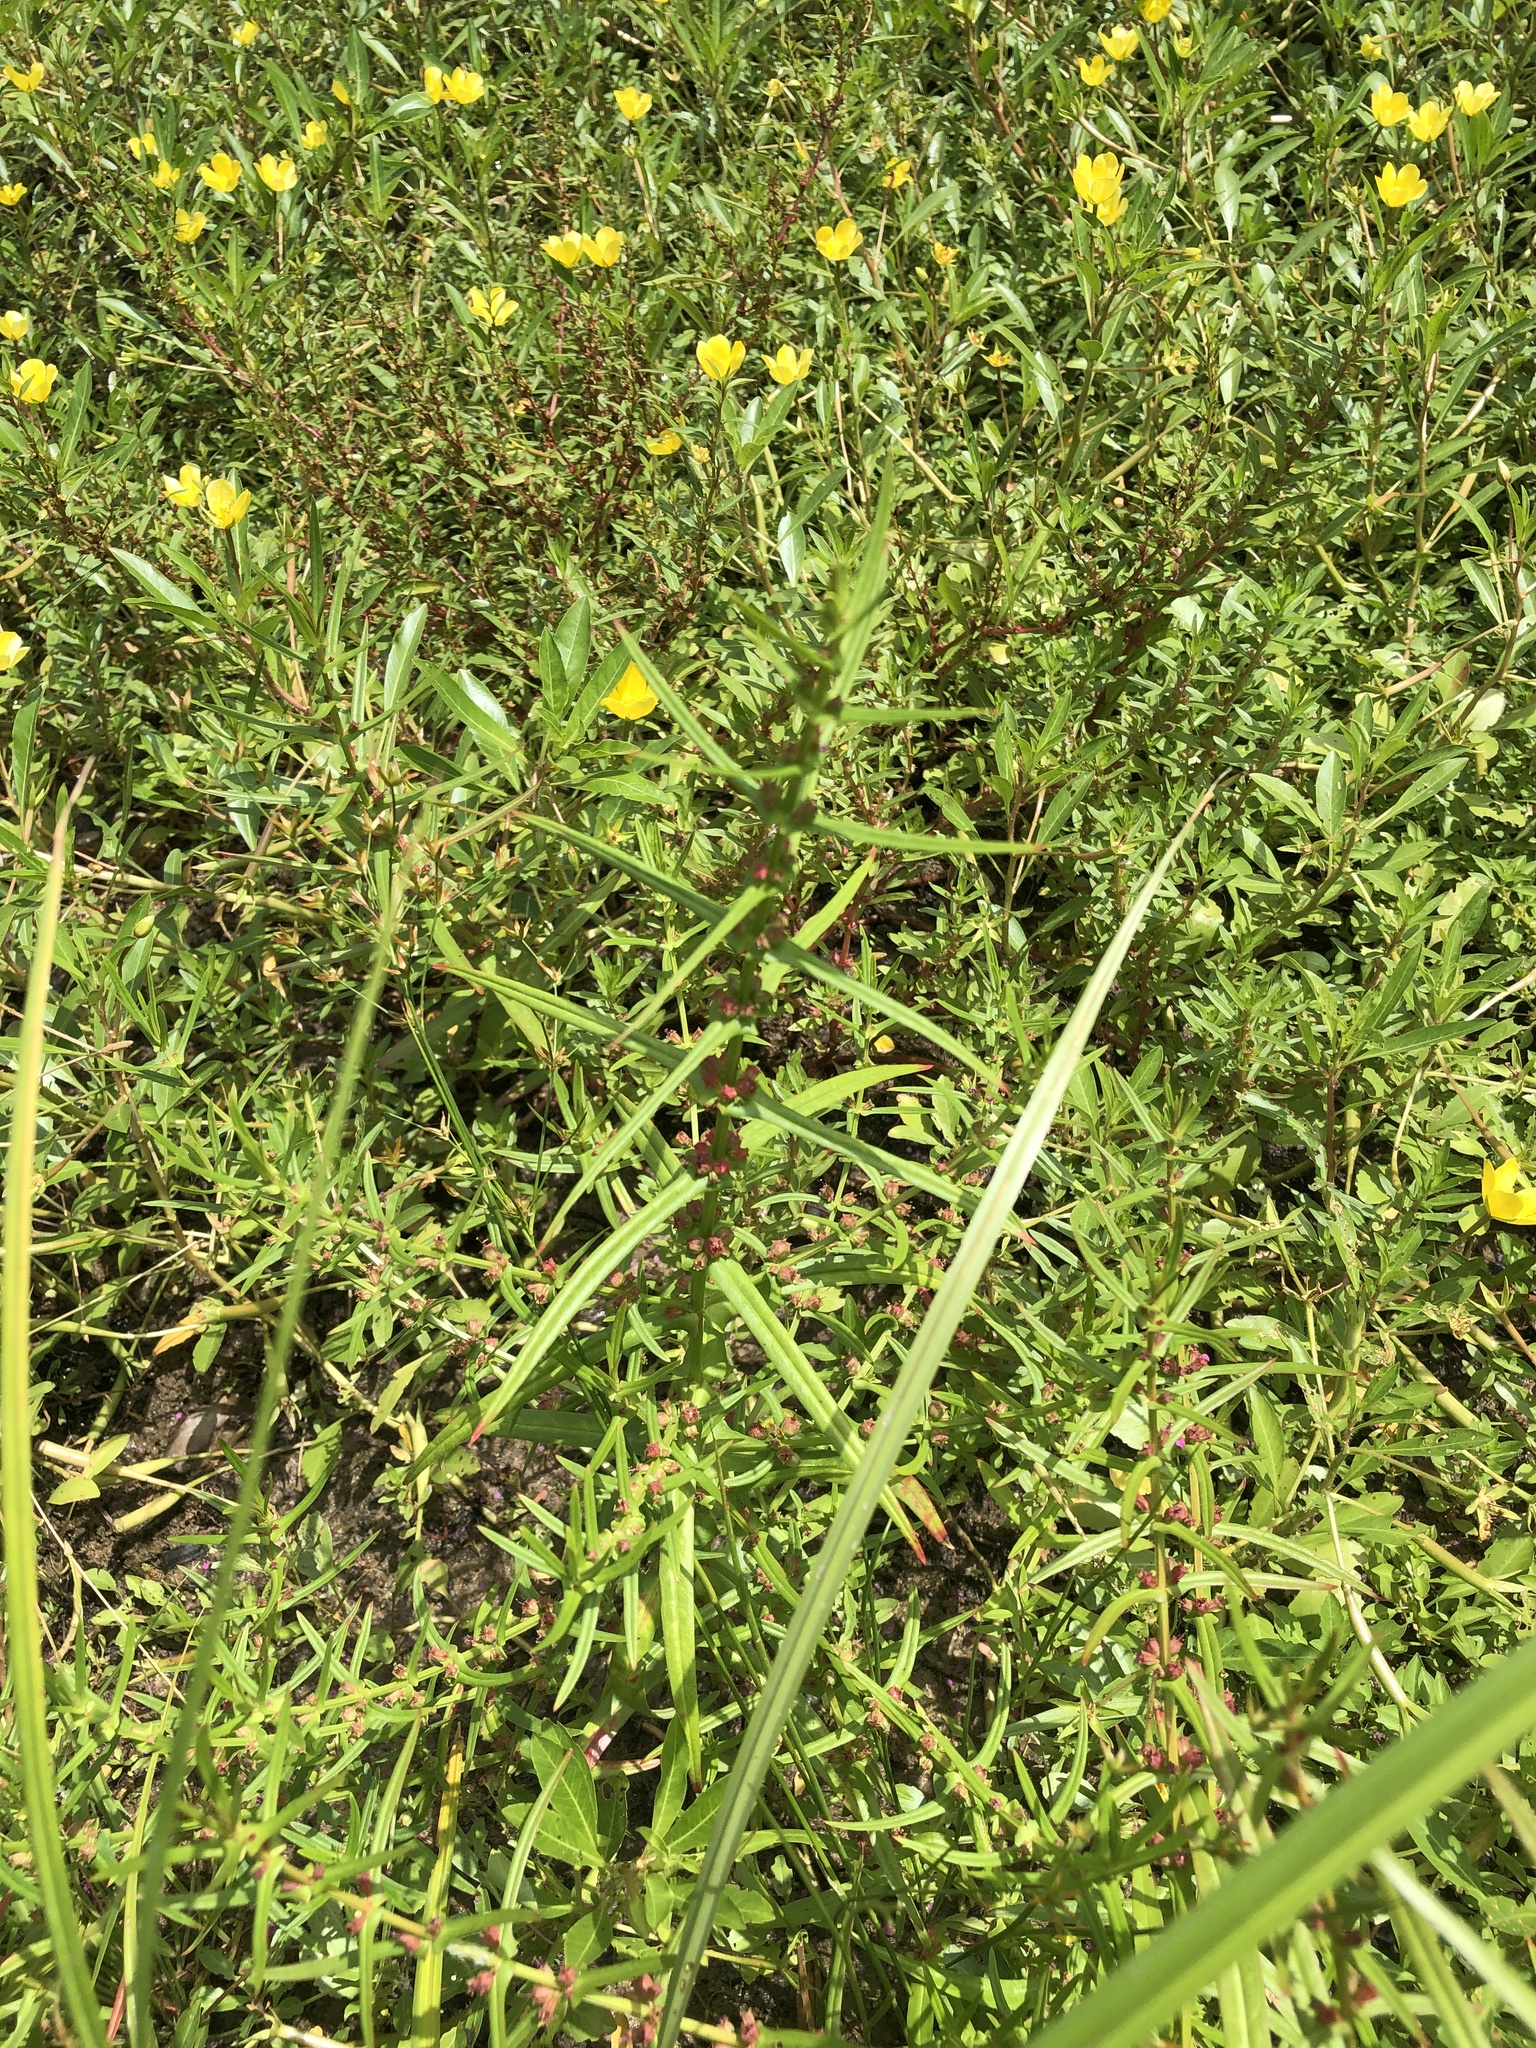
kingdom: Plantae
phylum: Tracheophyta
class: Magnoliopsida
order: Myrtales
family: Lythraceae
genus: Ammannia
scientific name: Ammannia coccinea
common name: Valley redstem
